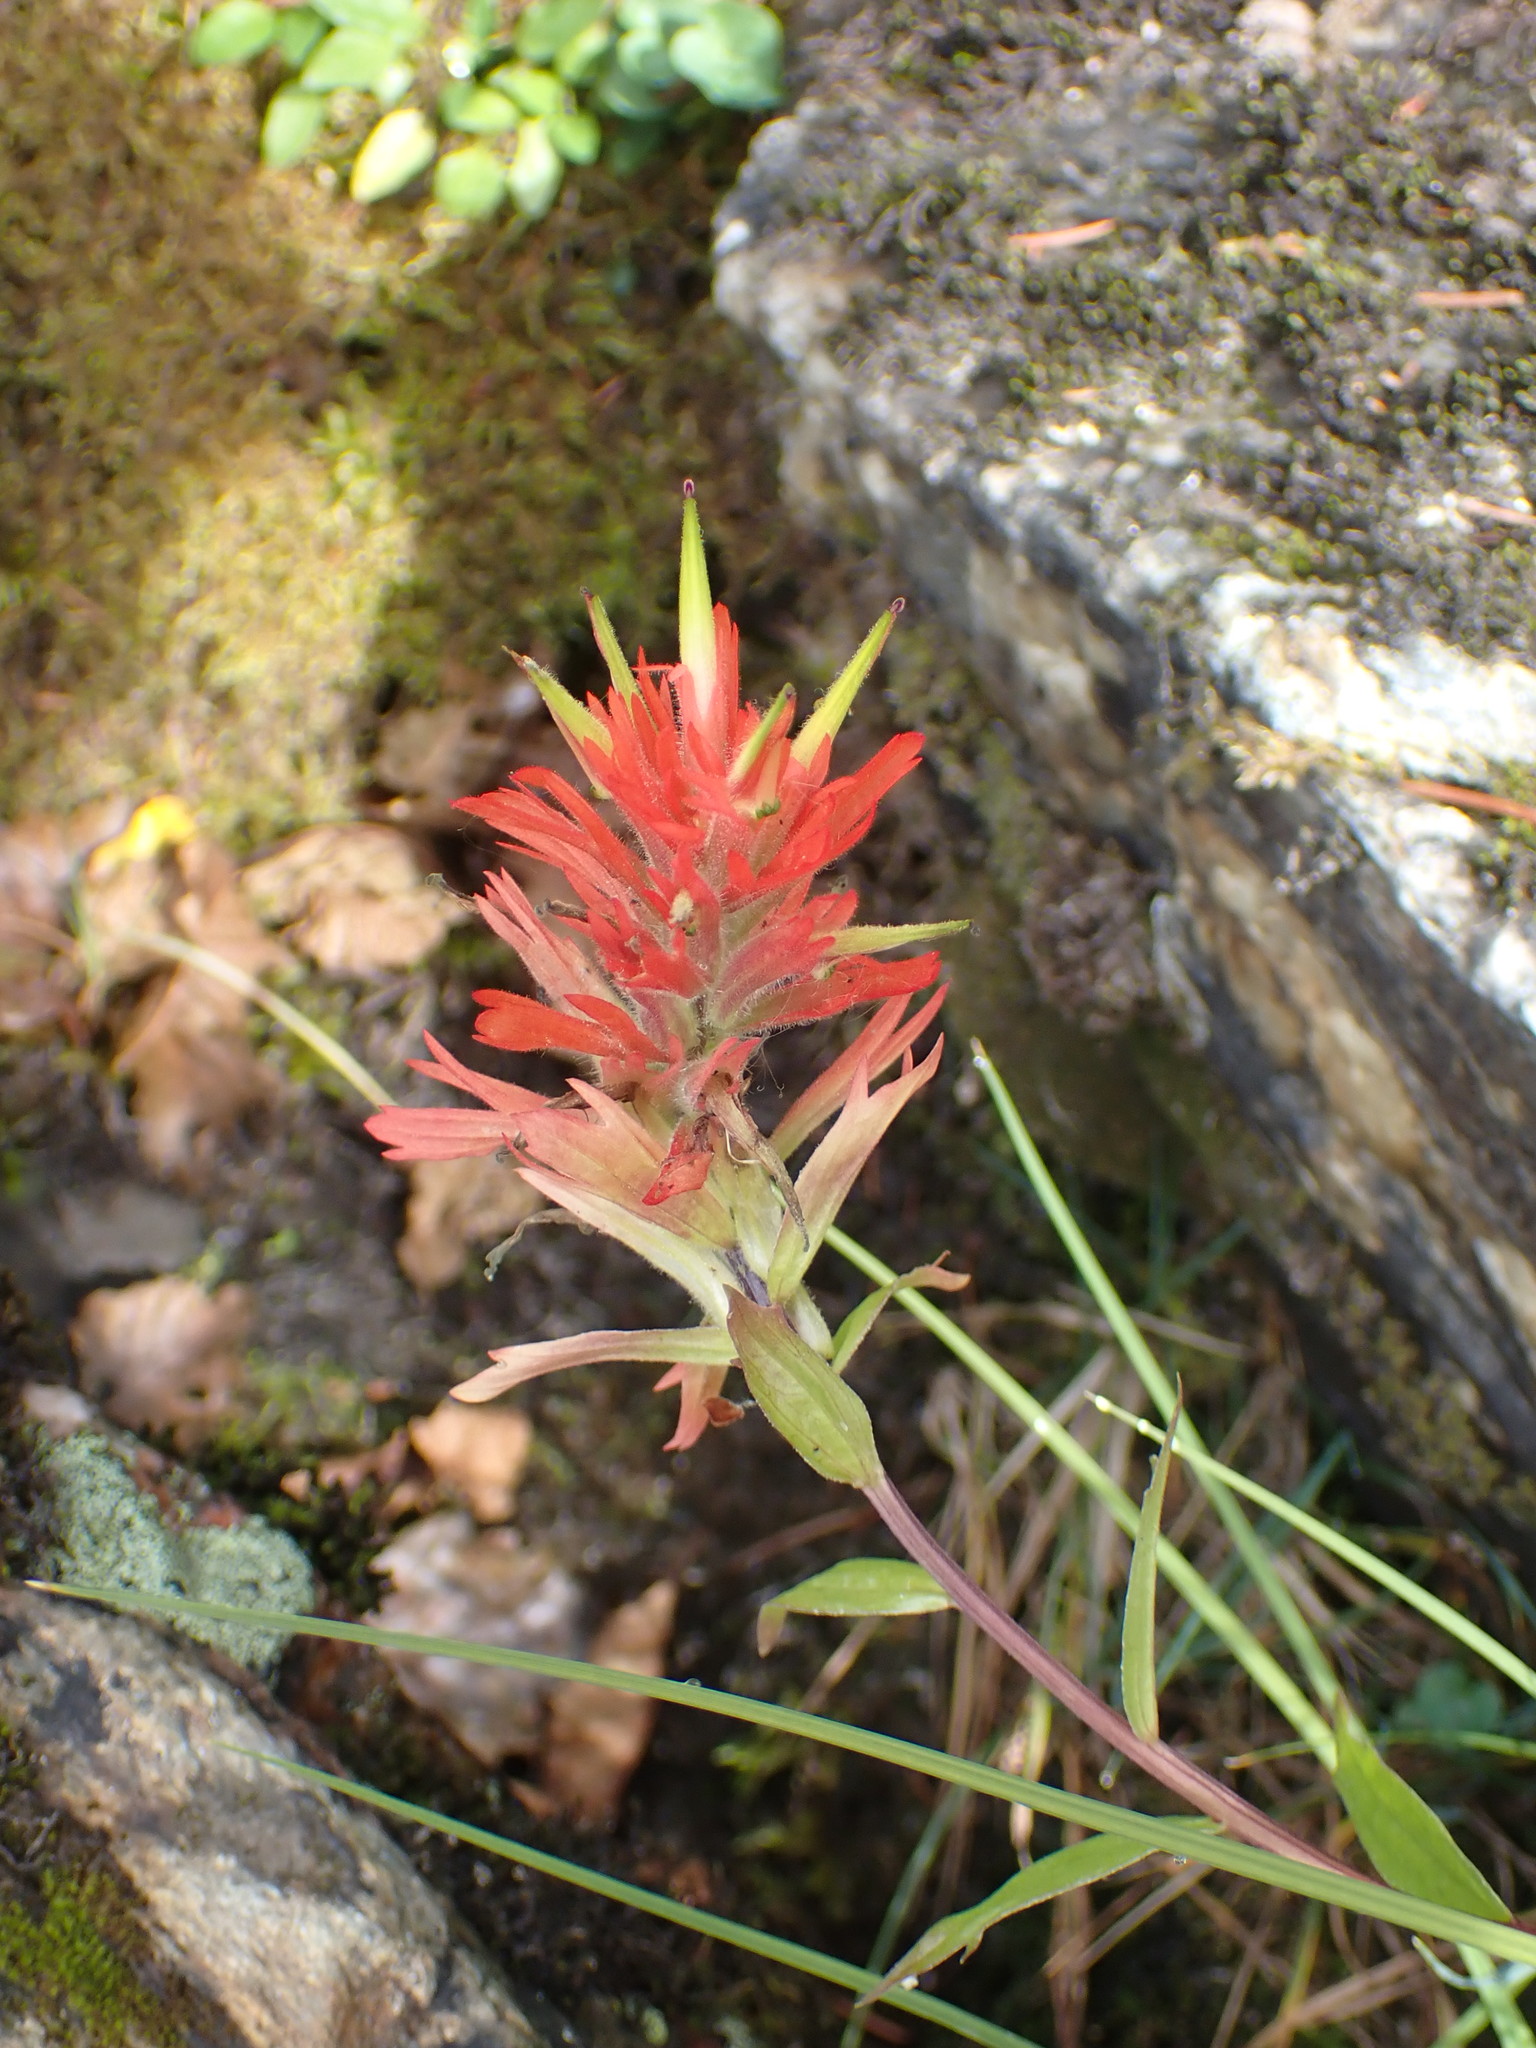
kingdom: Plantae
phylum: Tracheophyta
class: Magnoliopsida
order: Lamiales
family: Orobanchaceae
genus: Castilleja
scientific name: Castilleja miniata
